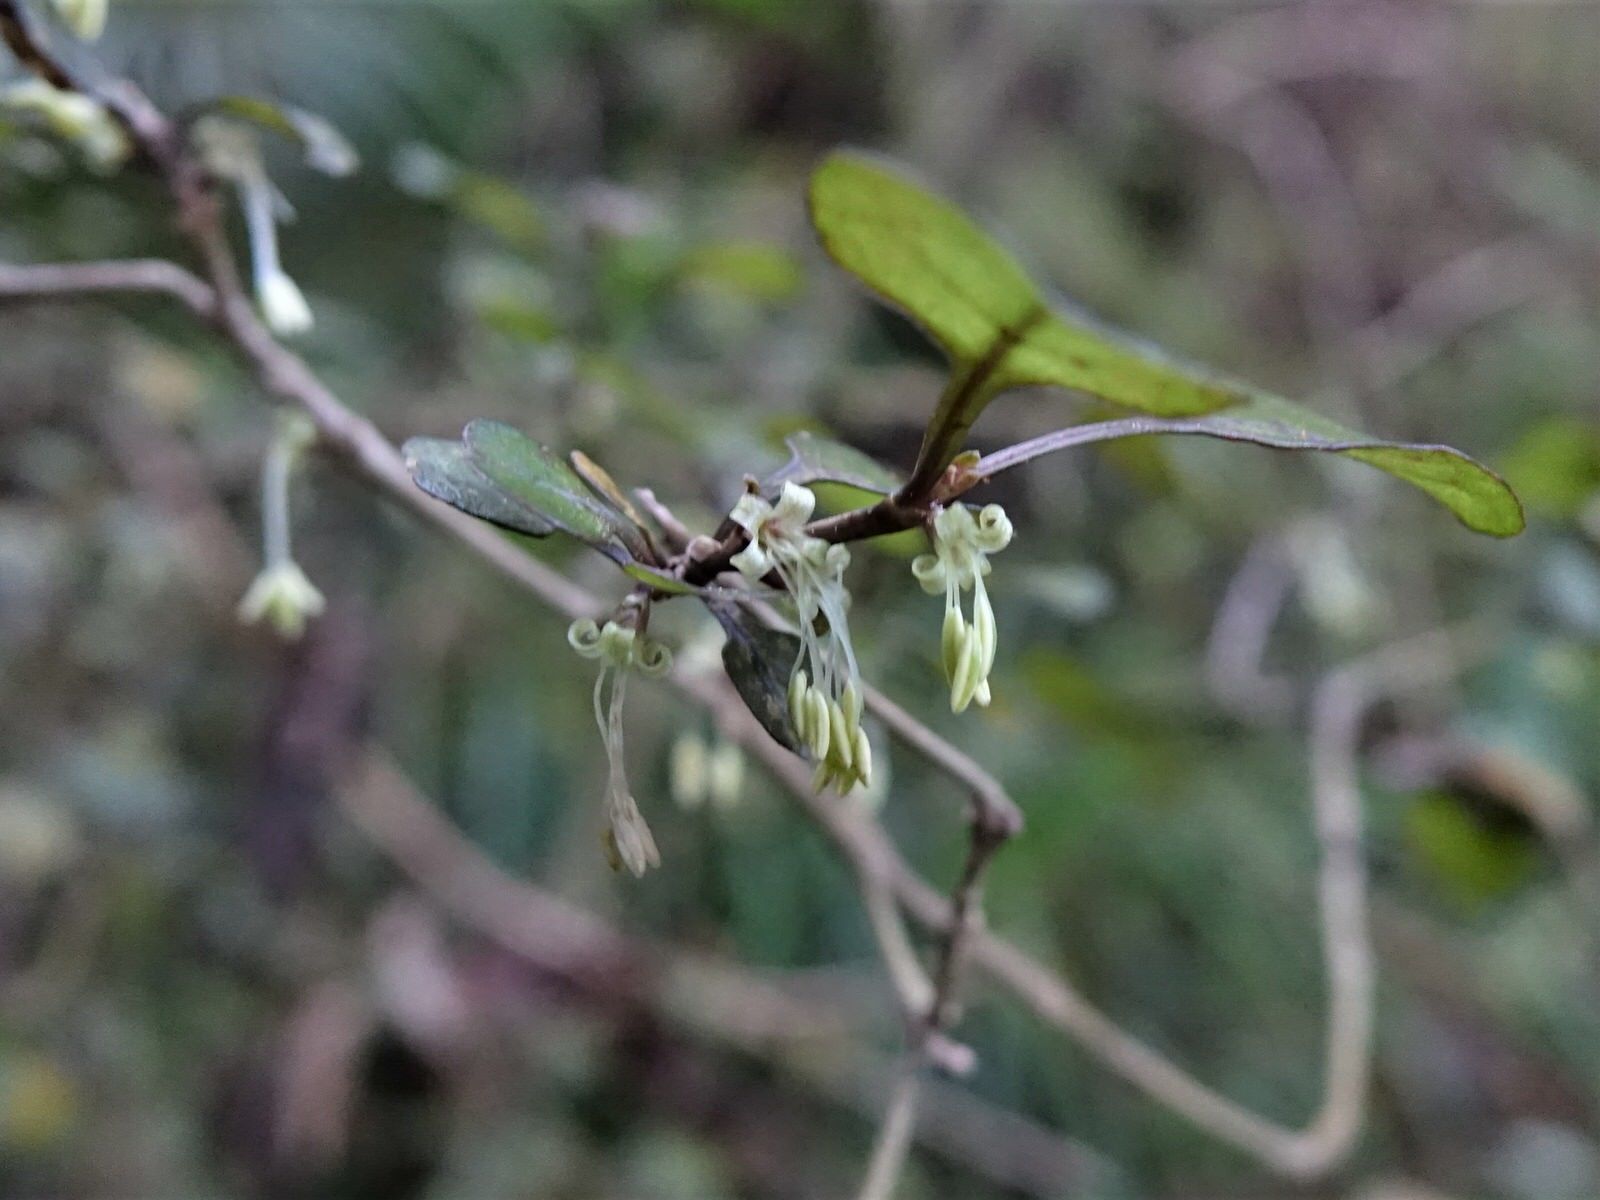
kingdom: Plantae
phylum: Tracheophyta
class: Magnoliopsida
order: Gentianales
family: Rubiaceae
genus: Coprosma
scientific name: Coprosma spathulata
